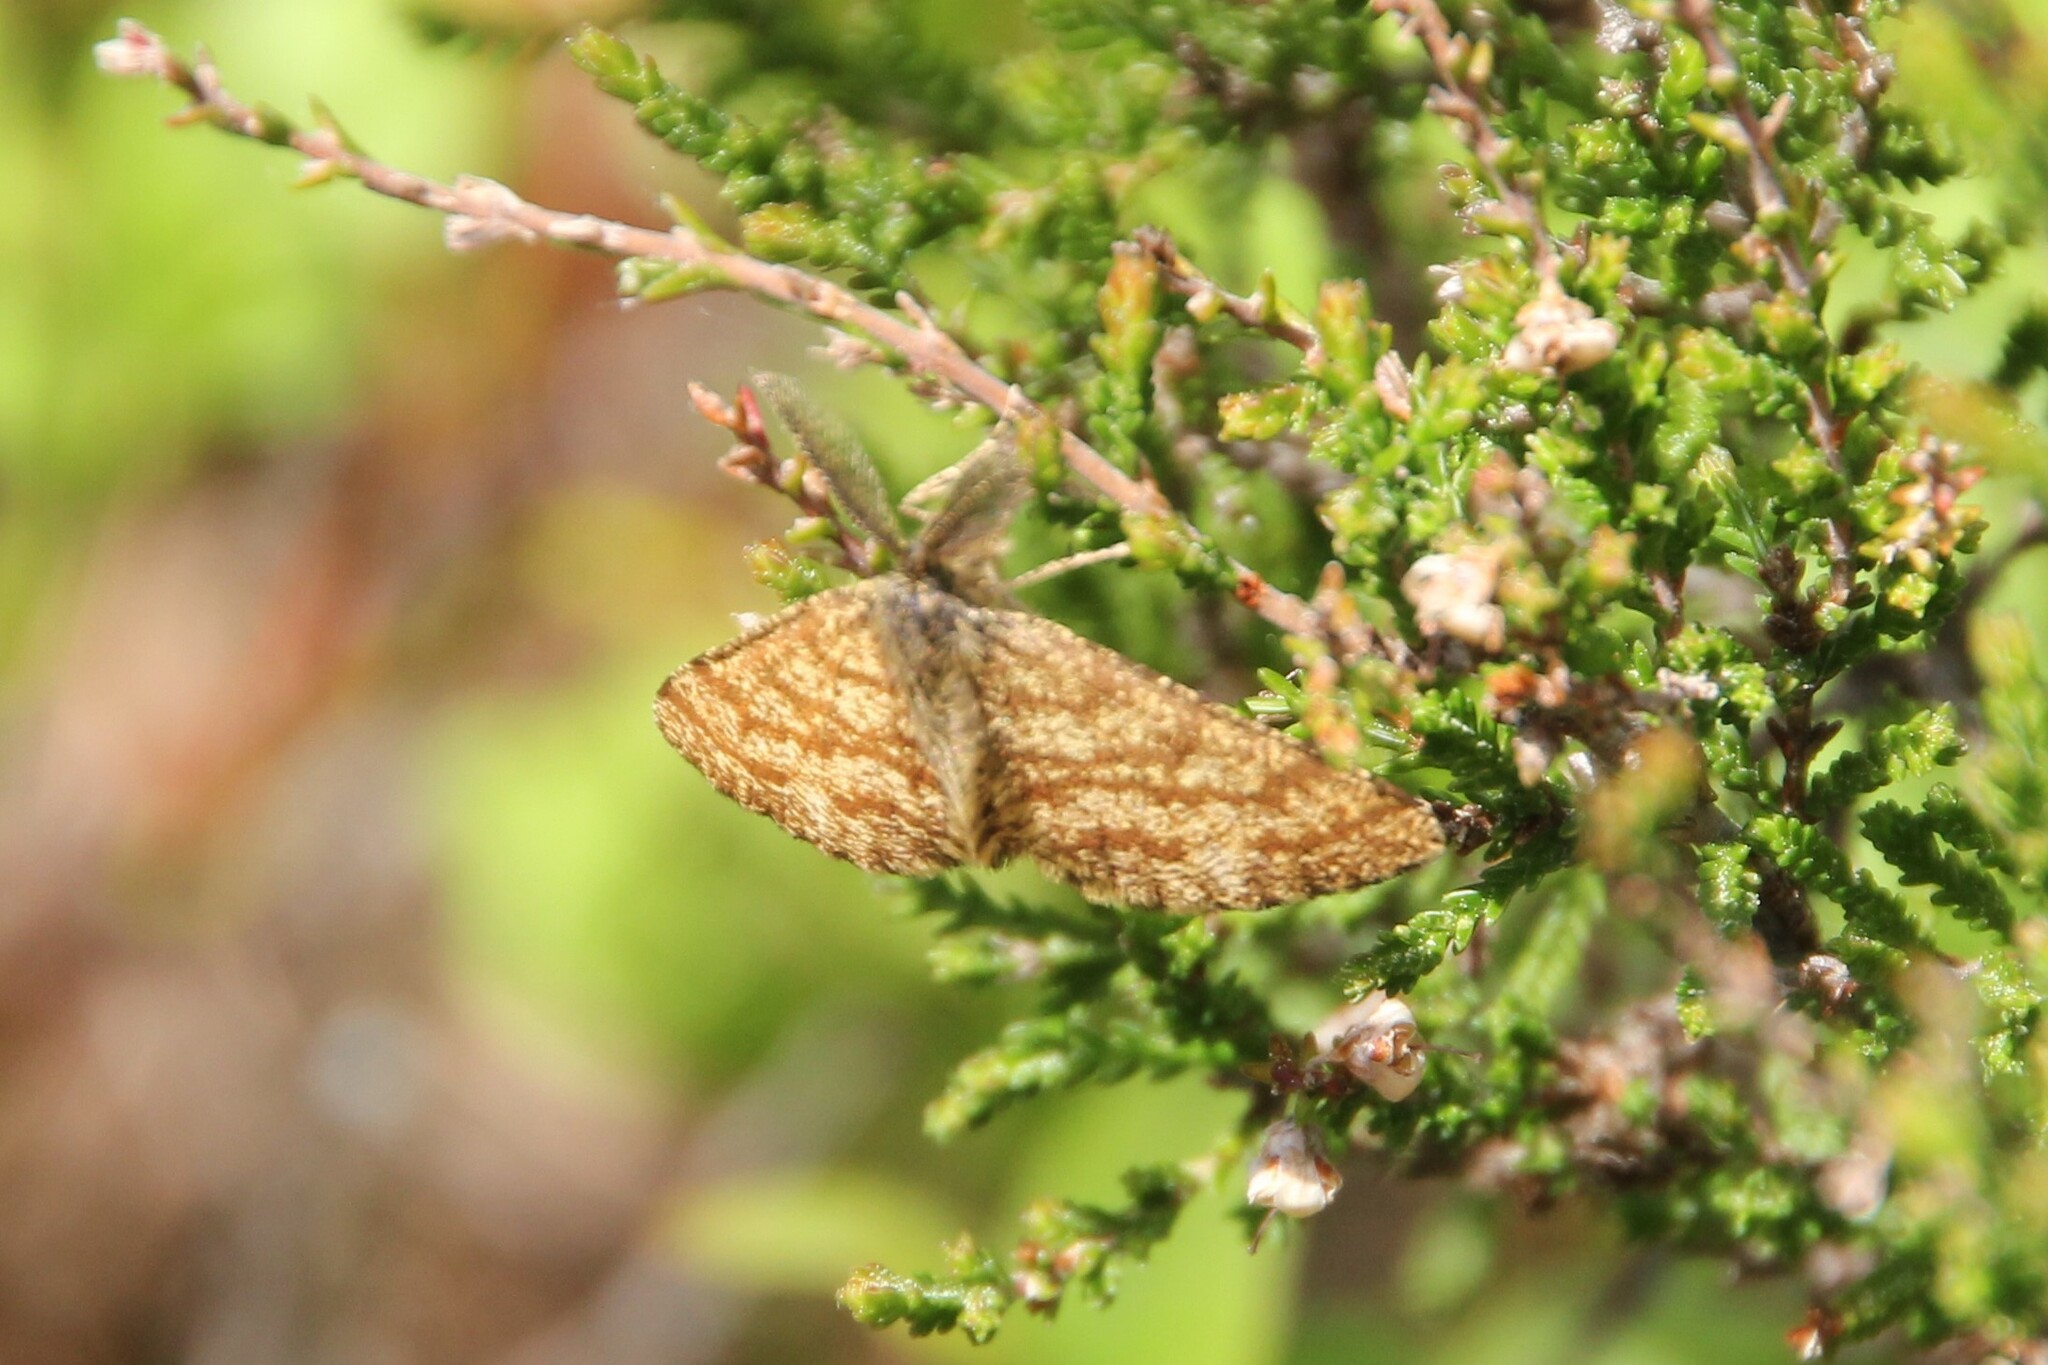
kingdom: Animalia
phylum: Arthropoda
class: Insecta
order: Lepidoptera
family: Geometridae
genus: Ematurga
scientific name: Ematurga atomaria
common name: Common heath
